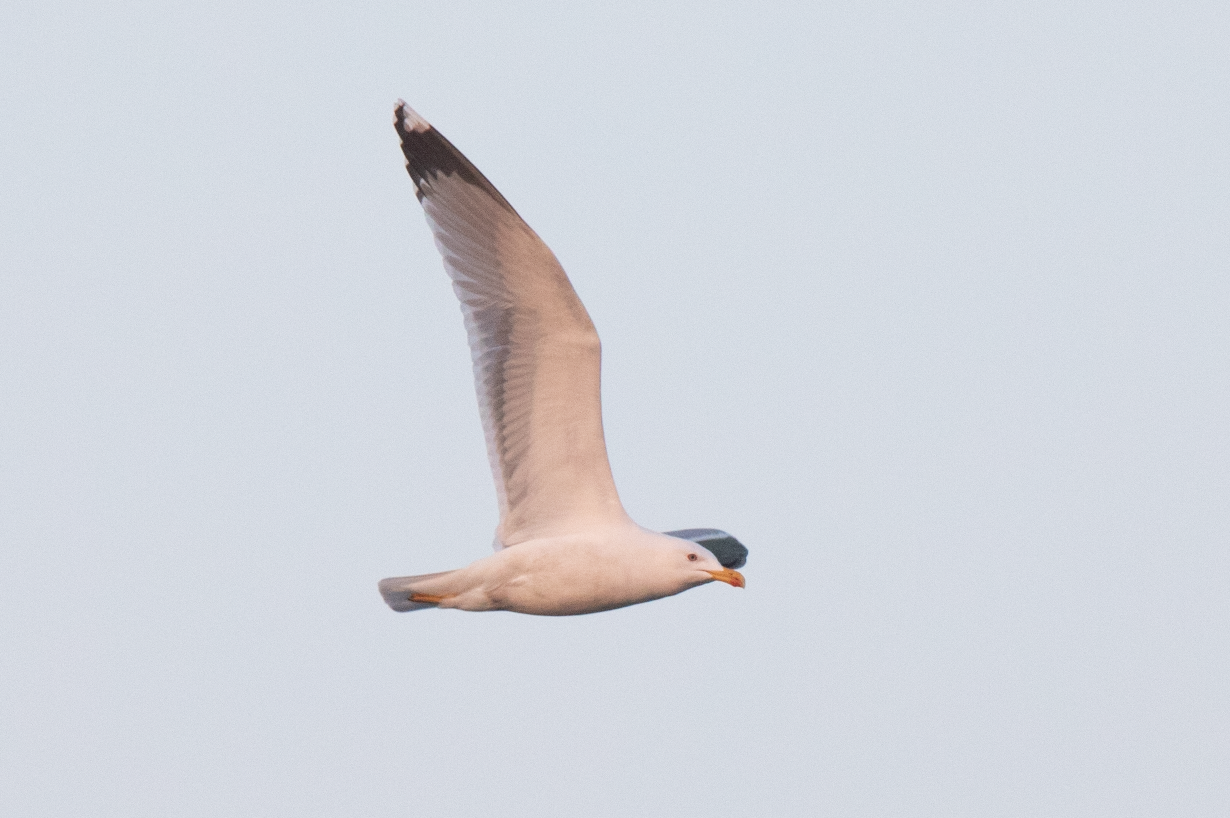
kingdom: Animalia
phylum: Chordata
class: Aves
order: Charadriiformes
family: Laridae
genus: Larus
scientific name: Larus michahellis
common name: Yellow-legged gull
